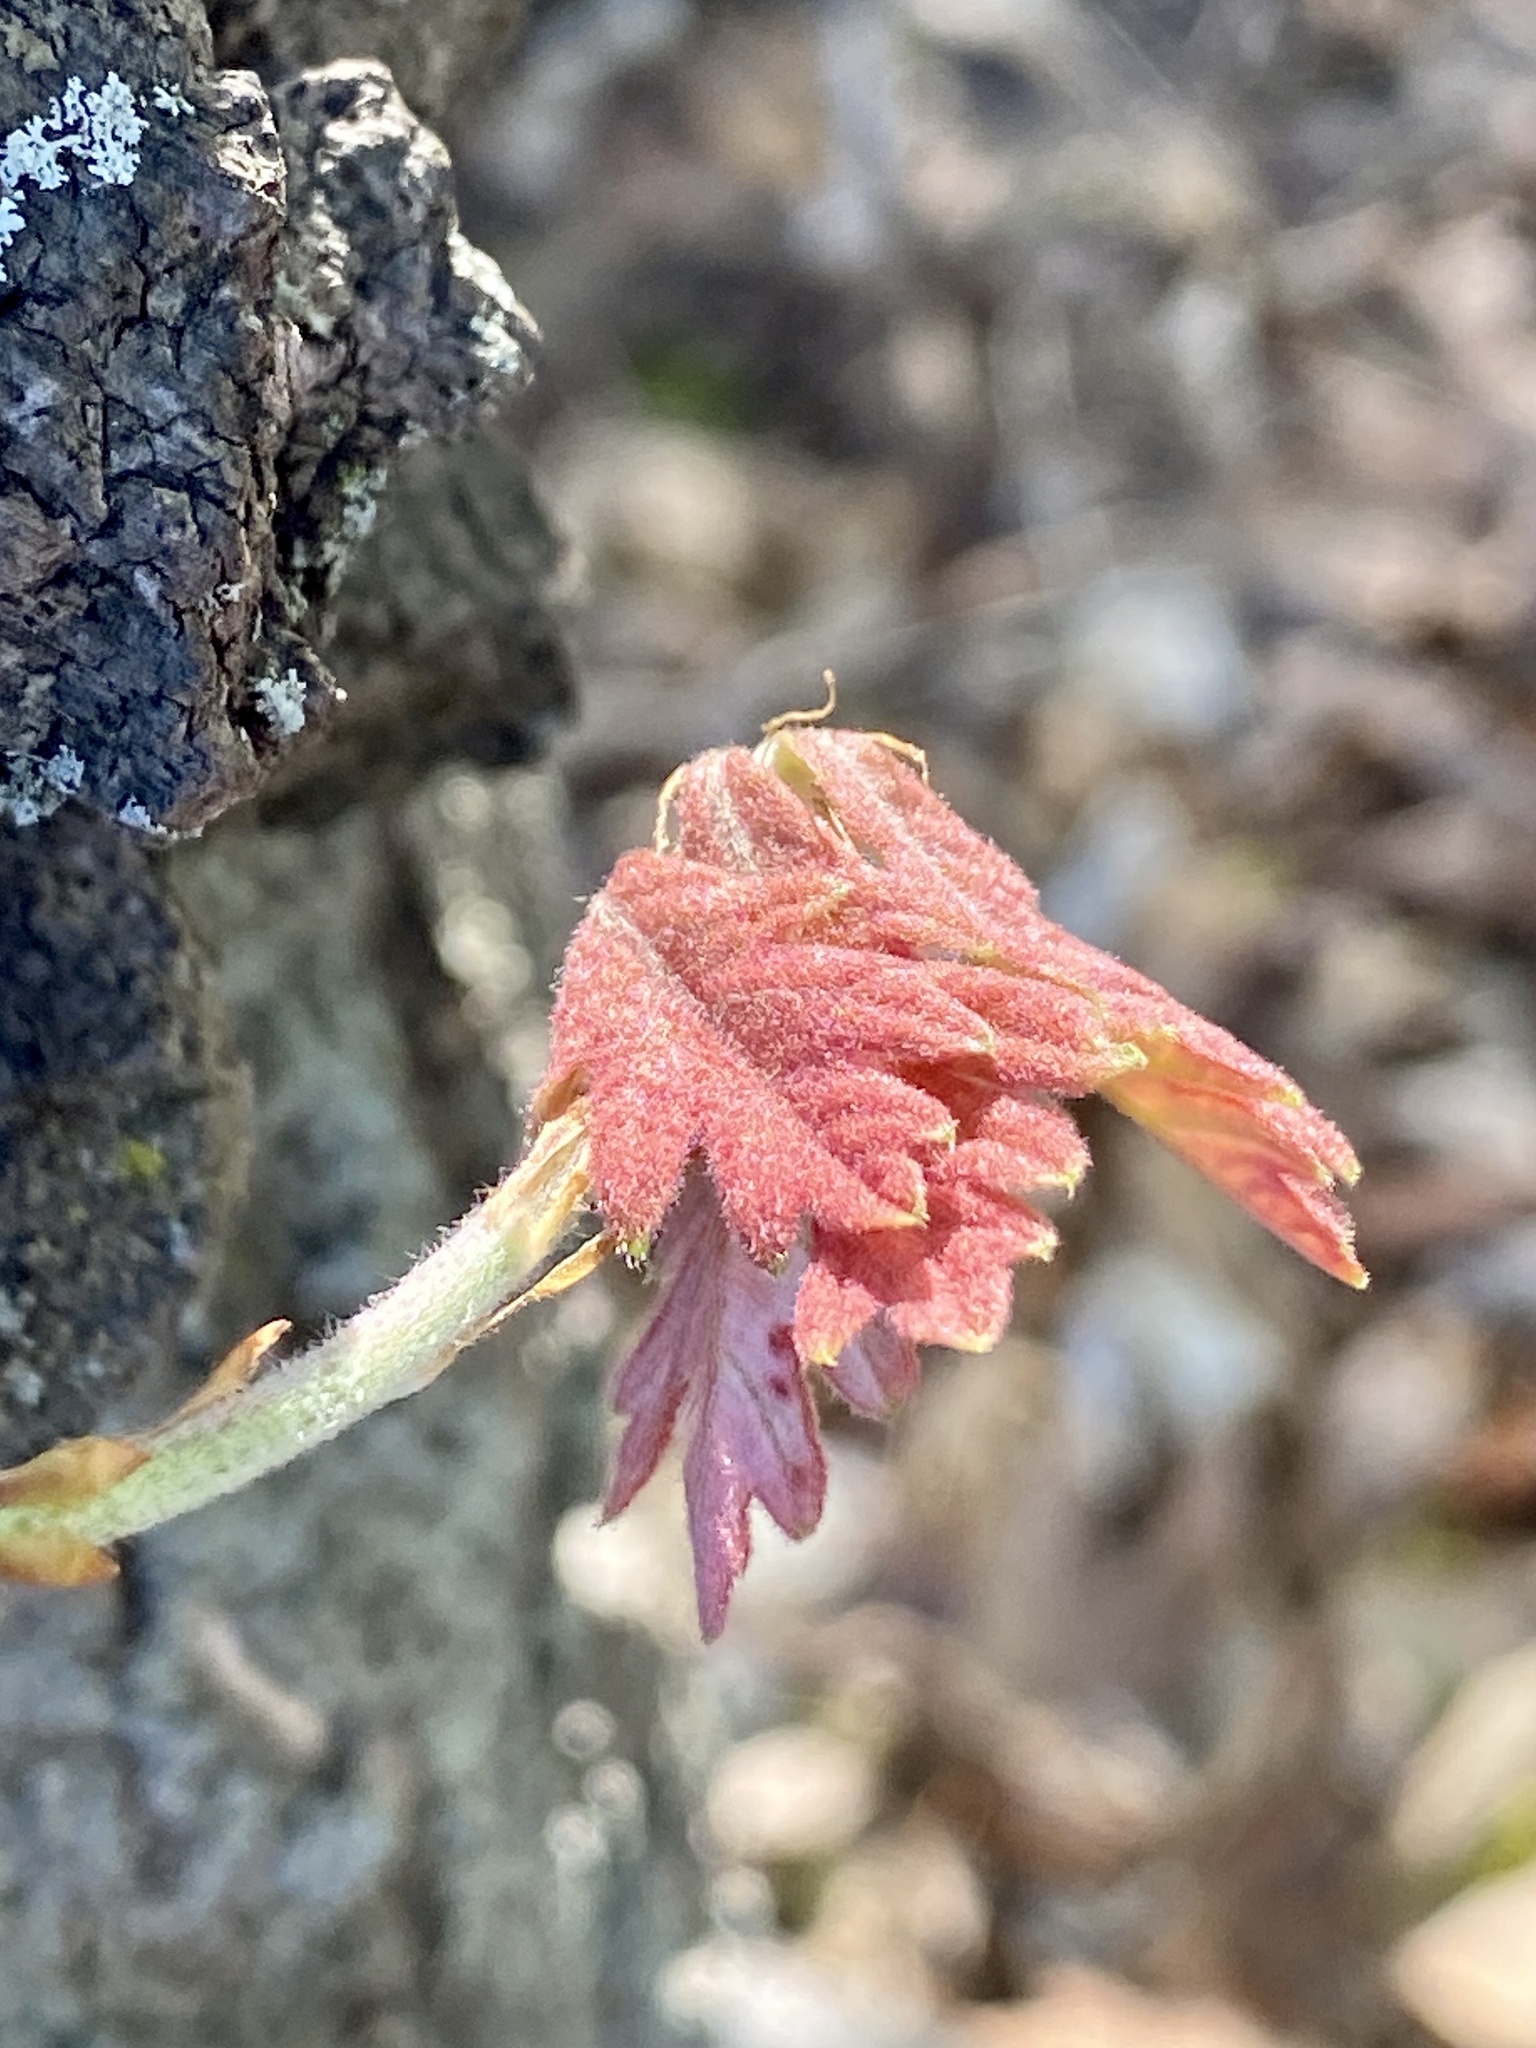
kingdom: Plantae
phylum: Tracheophyta
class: Magnoliopsida
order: Fagales
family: Fagaceae
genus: Quercus
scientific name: Quercus alba
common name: White oak
